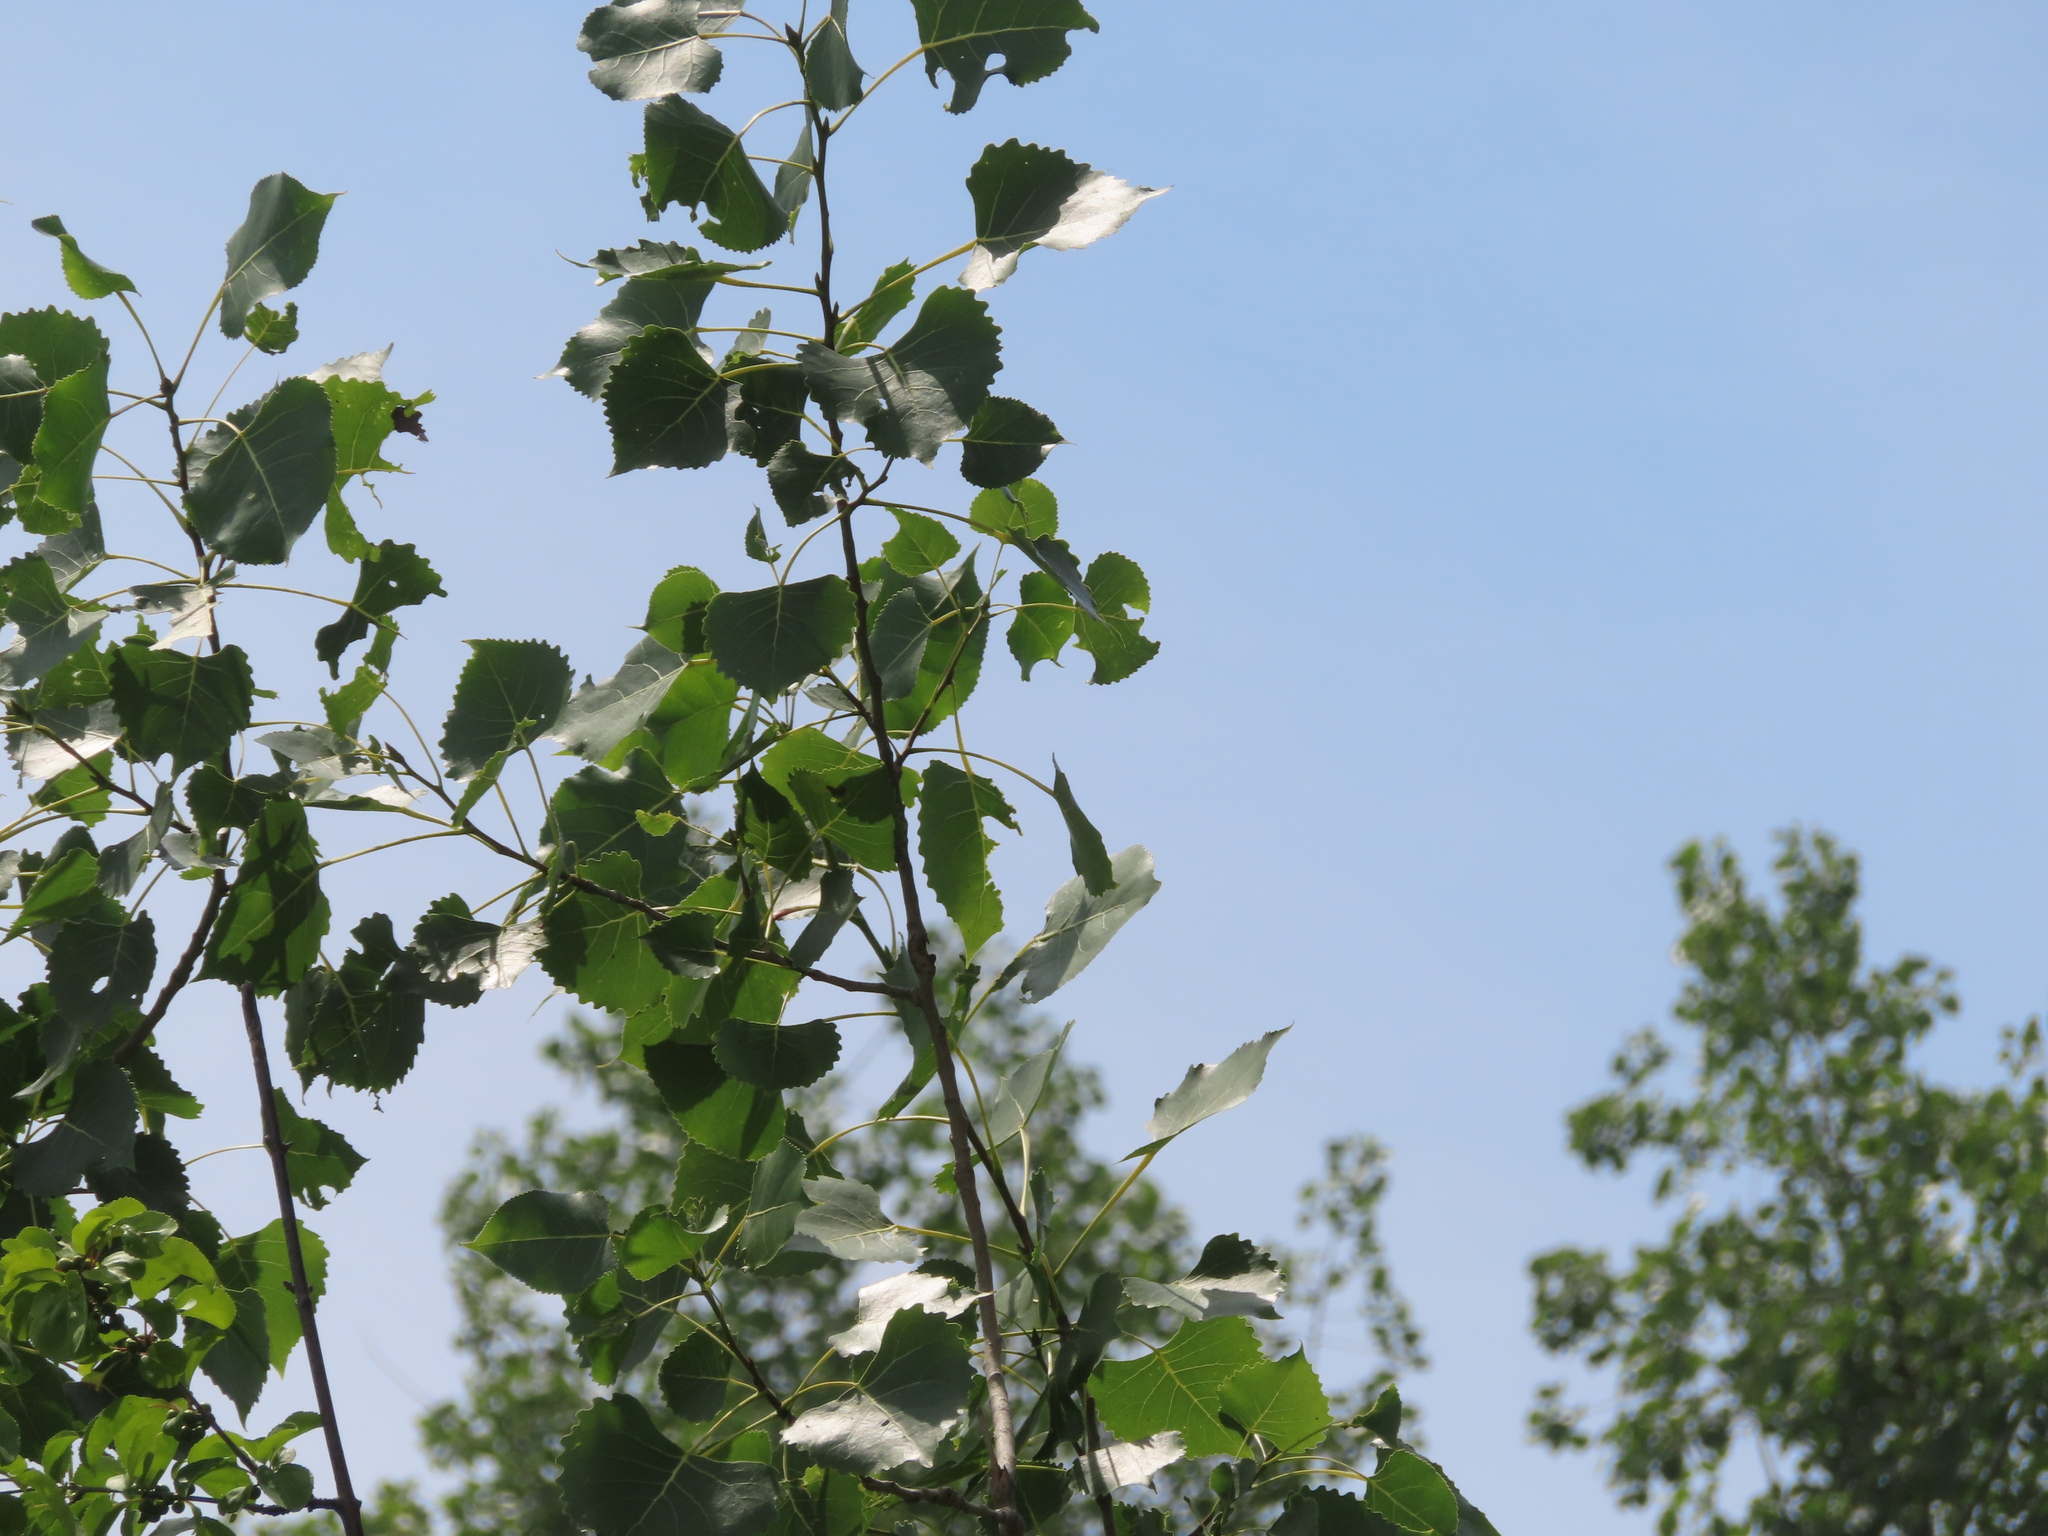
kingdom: Plantae
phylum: Tracheophyta
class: Magnoliopsida
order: Malpighiales
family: Salicaceae
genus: Populus
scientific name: Populus deltoides
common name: Eastern cottonwood
